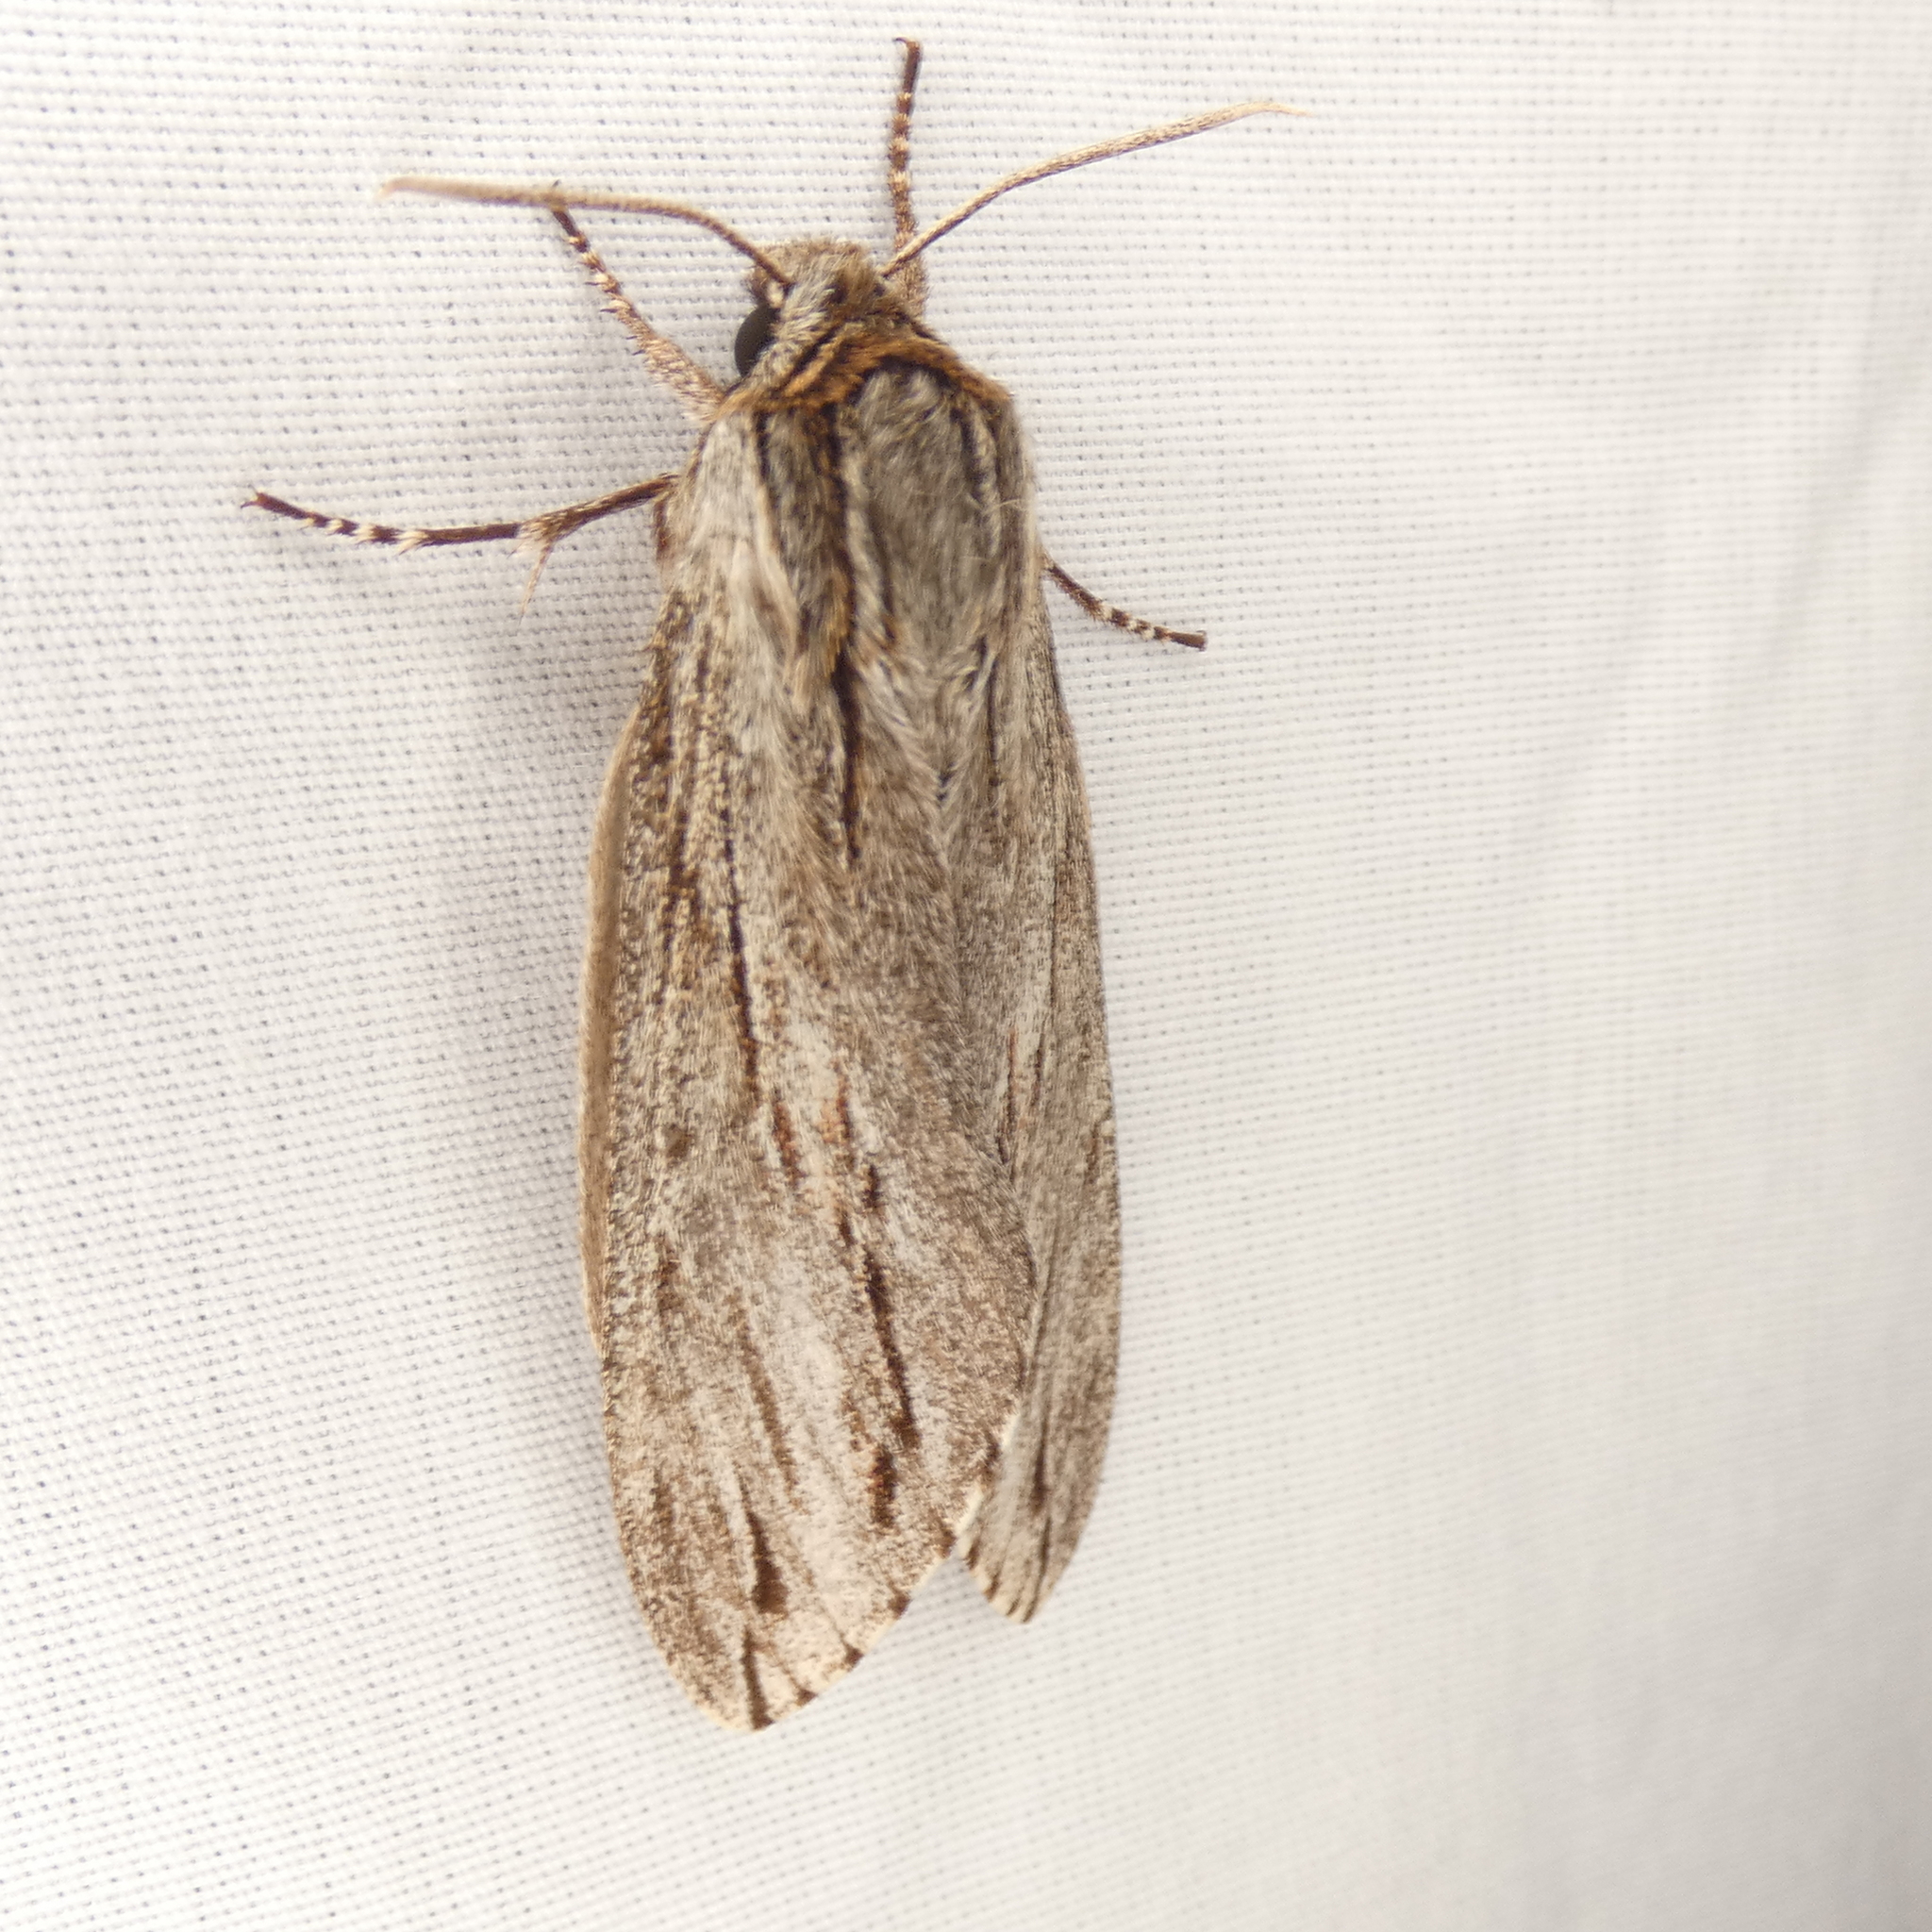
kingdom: Animalia
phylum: Arthropoda
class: Insecta
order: Lepidoptera
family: Sphingidae
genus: Isoparce
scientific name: Isoparce cupressi
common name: Cypress sphinx
